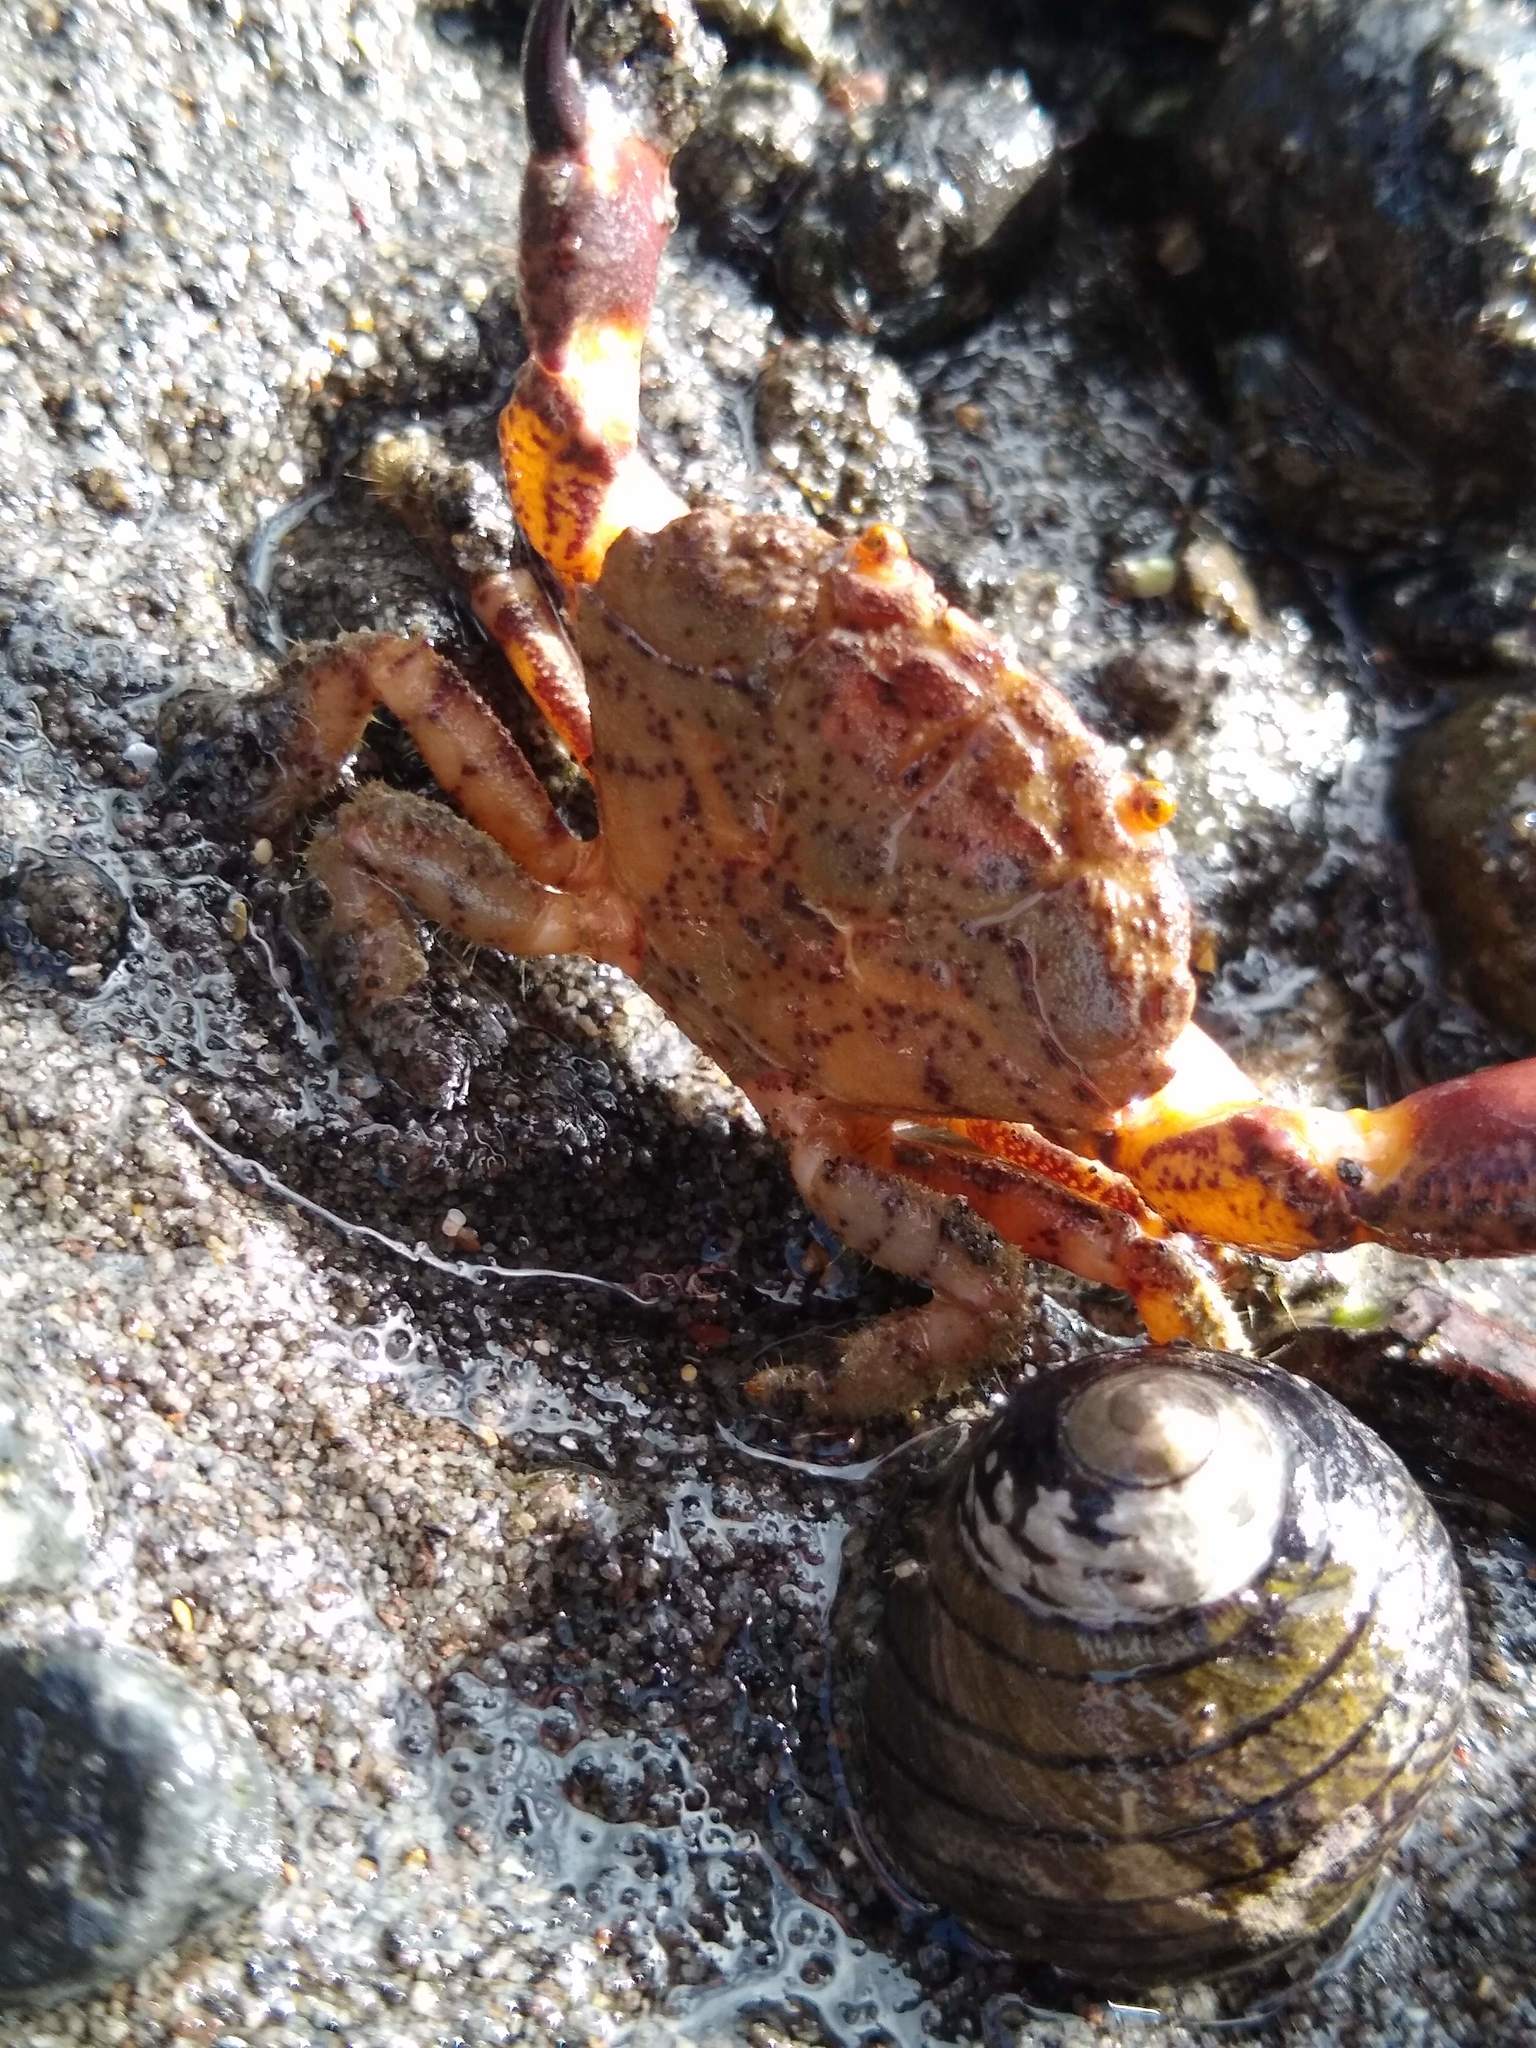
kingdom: Animalia
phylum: Arthropoda
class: Malacostraca
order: Decapoda
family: Oziidae
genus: Ozius
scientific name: Ozius deplanatus
